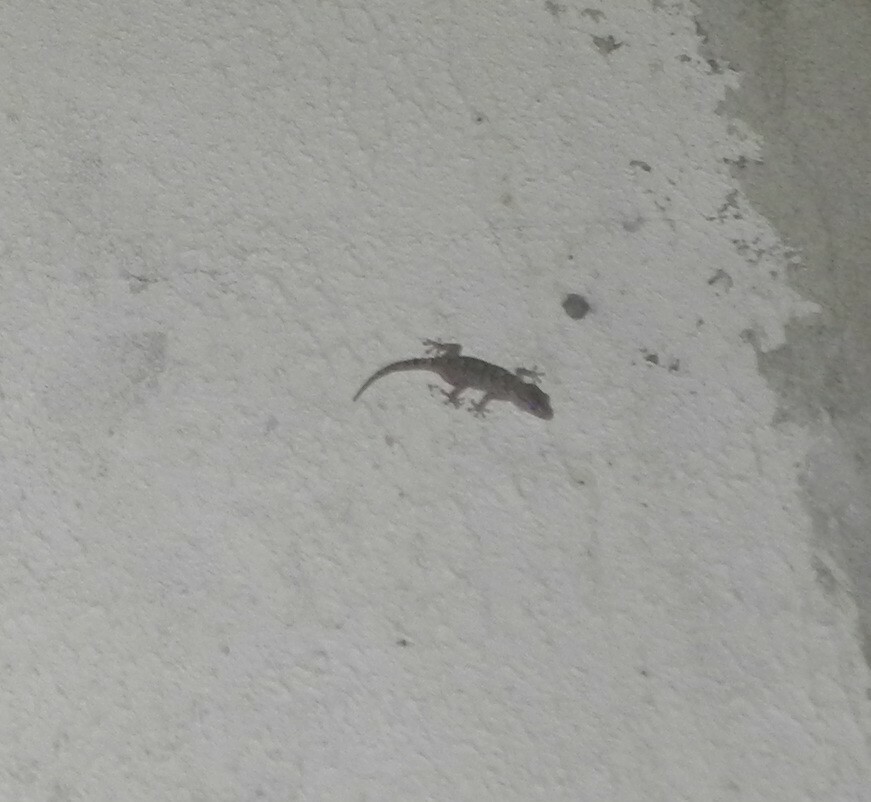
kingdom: Animalia
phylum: Chordata
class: Squamata
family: Phyllodactylidae
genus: Tarentola
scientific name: Tarentola mauritanica
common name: Moorish gecko
